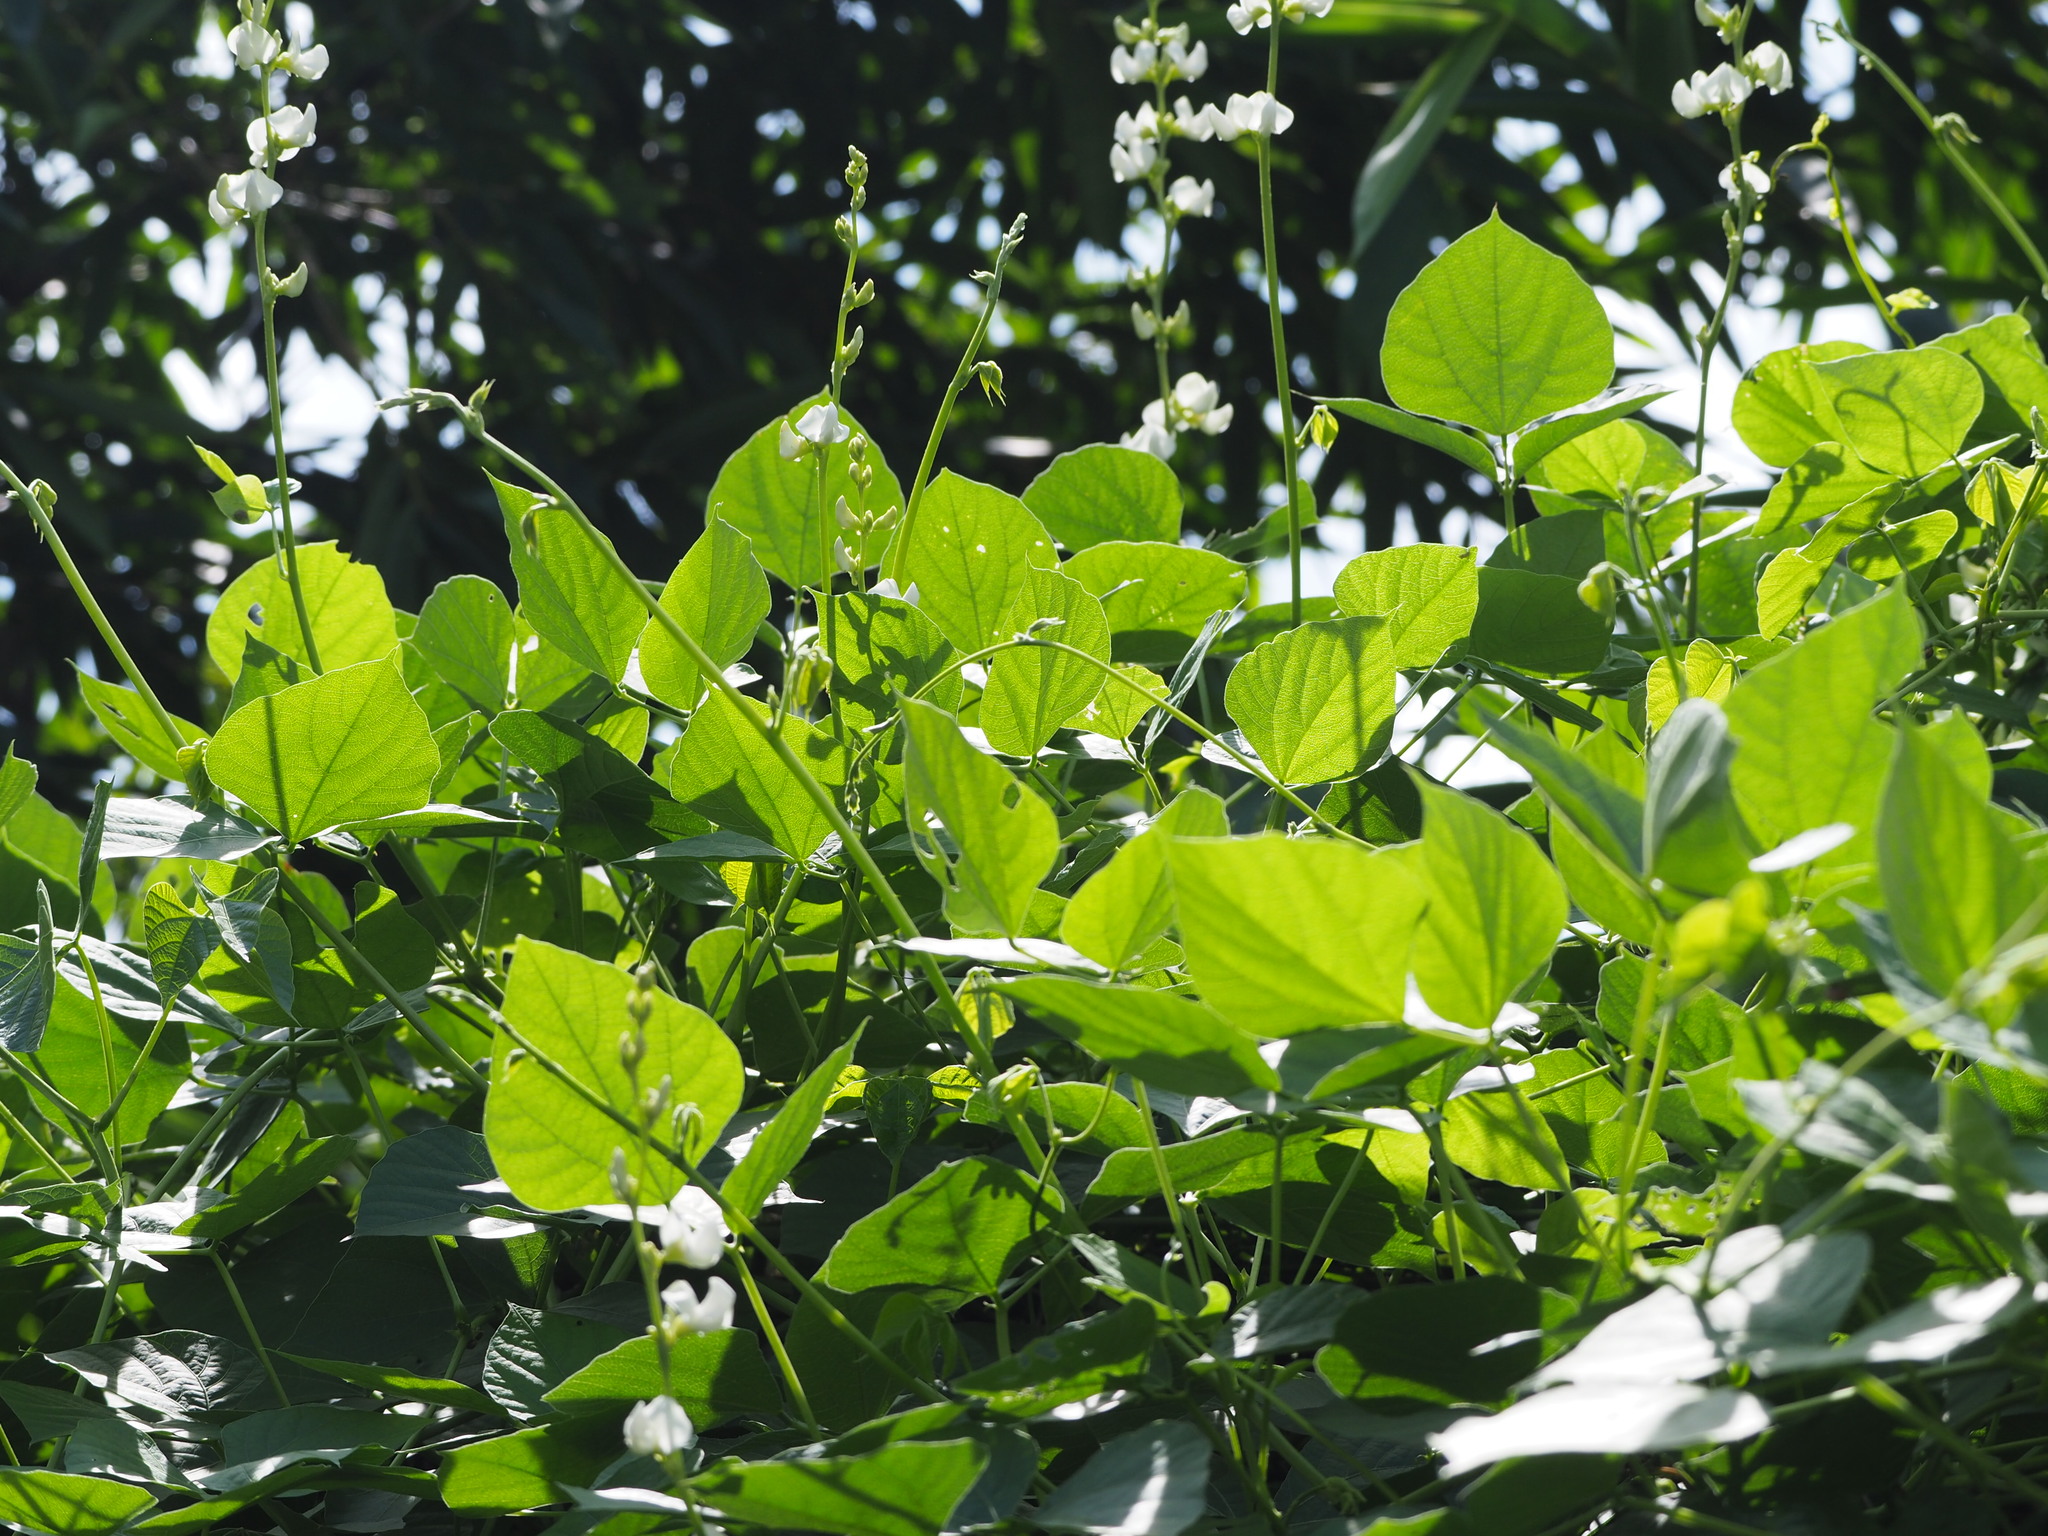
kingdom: Plantae
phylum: Tracheophyta
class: Magnoliopsida
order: Fabales
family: Fabaceae
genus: Lablab
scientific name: Lablab purpureus
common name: Lablab-bean
